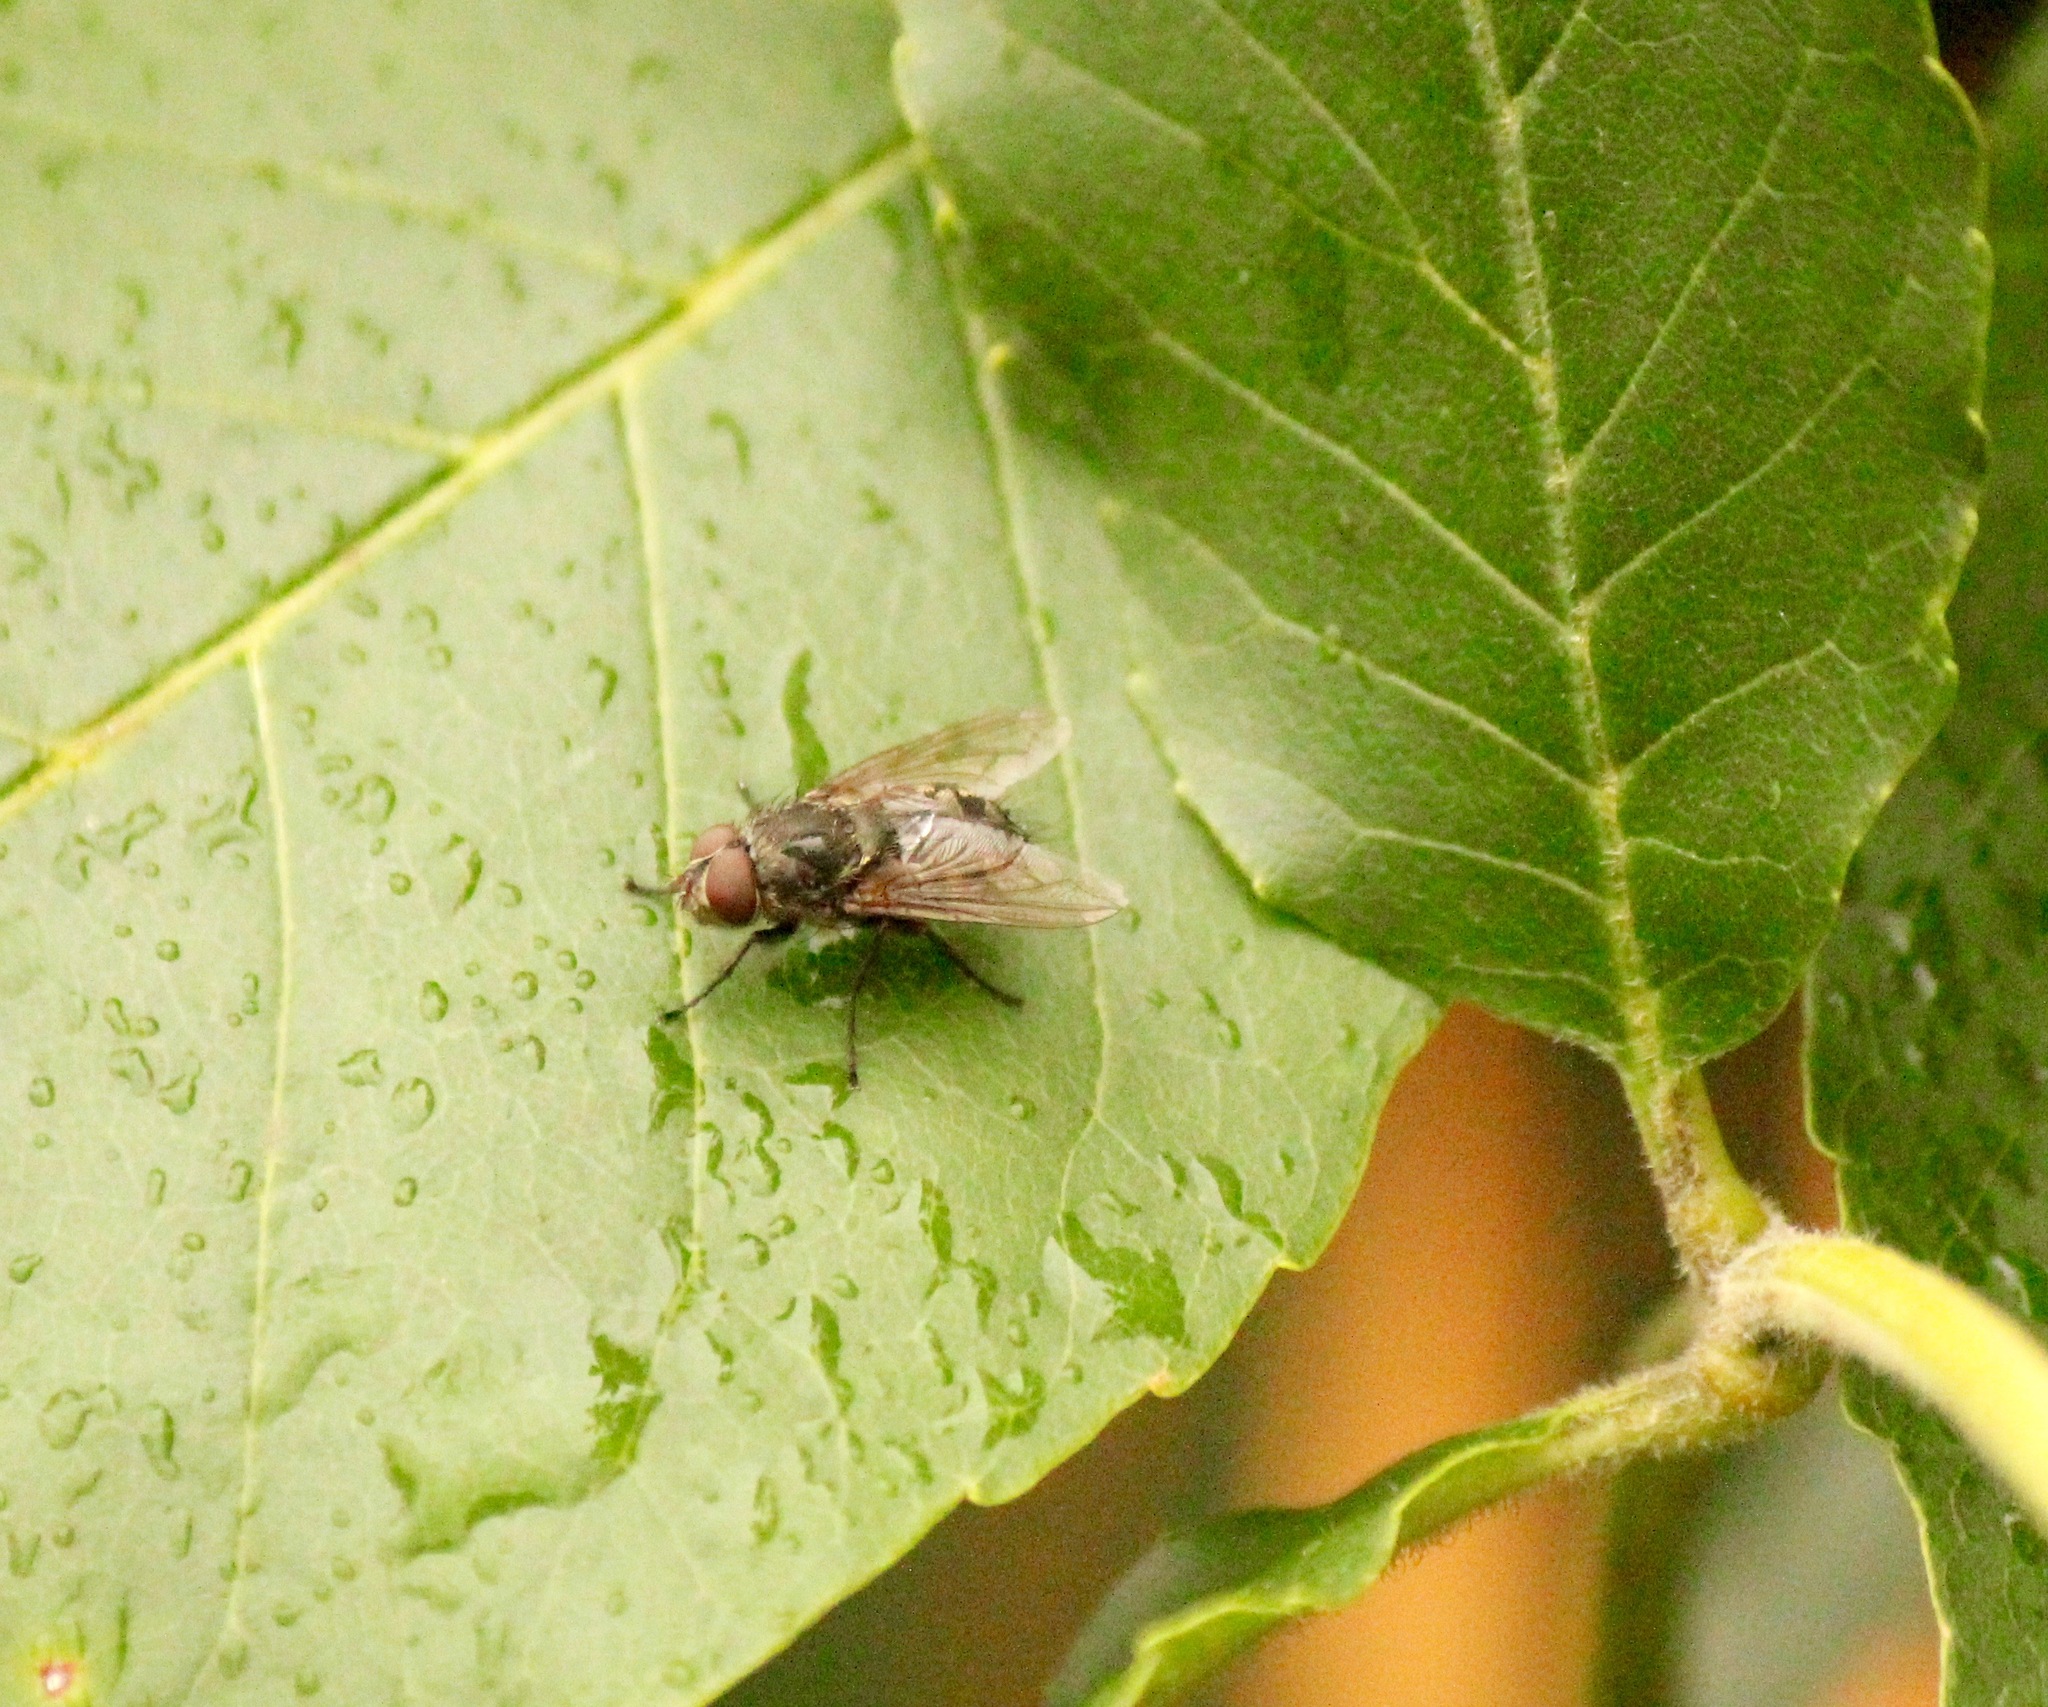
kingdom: Animalia
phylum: Arthropoda
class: Insecta
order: Diptera
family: Polleniidae
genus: Pollenia
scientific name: Pollenia
